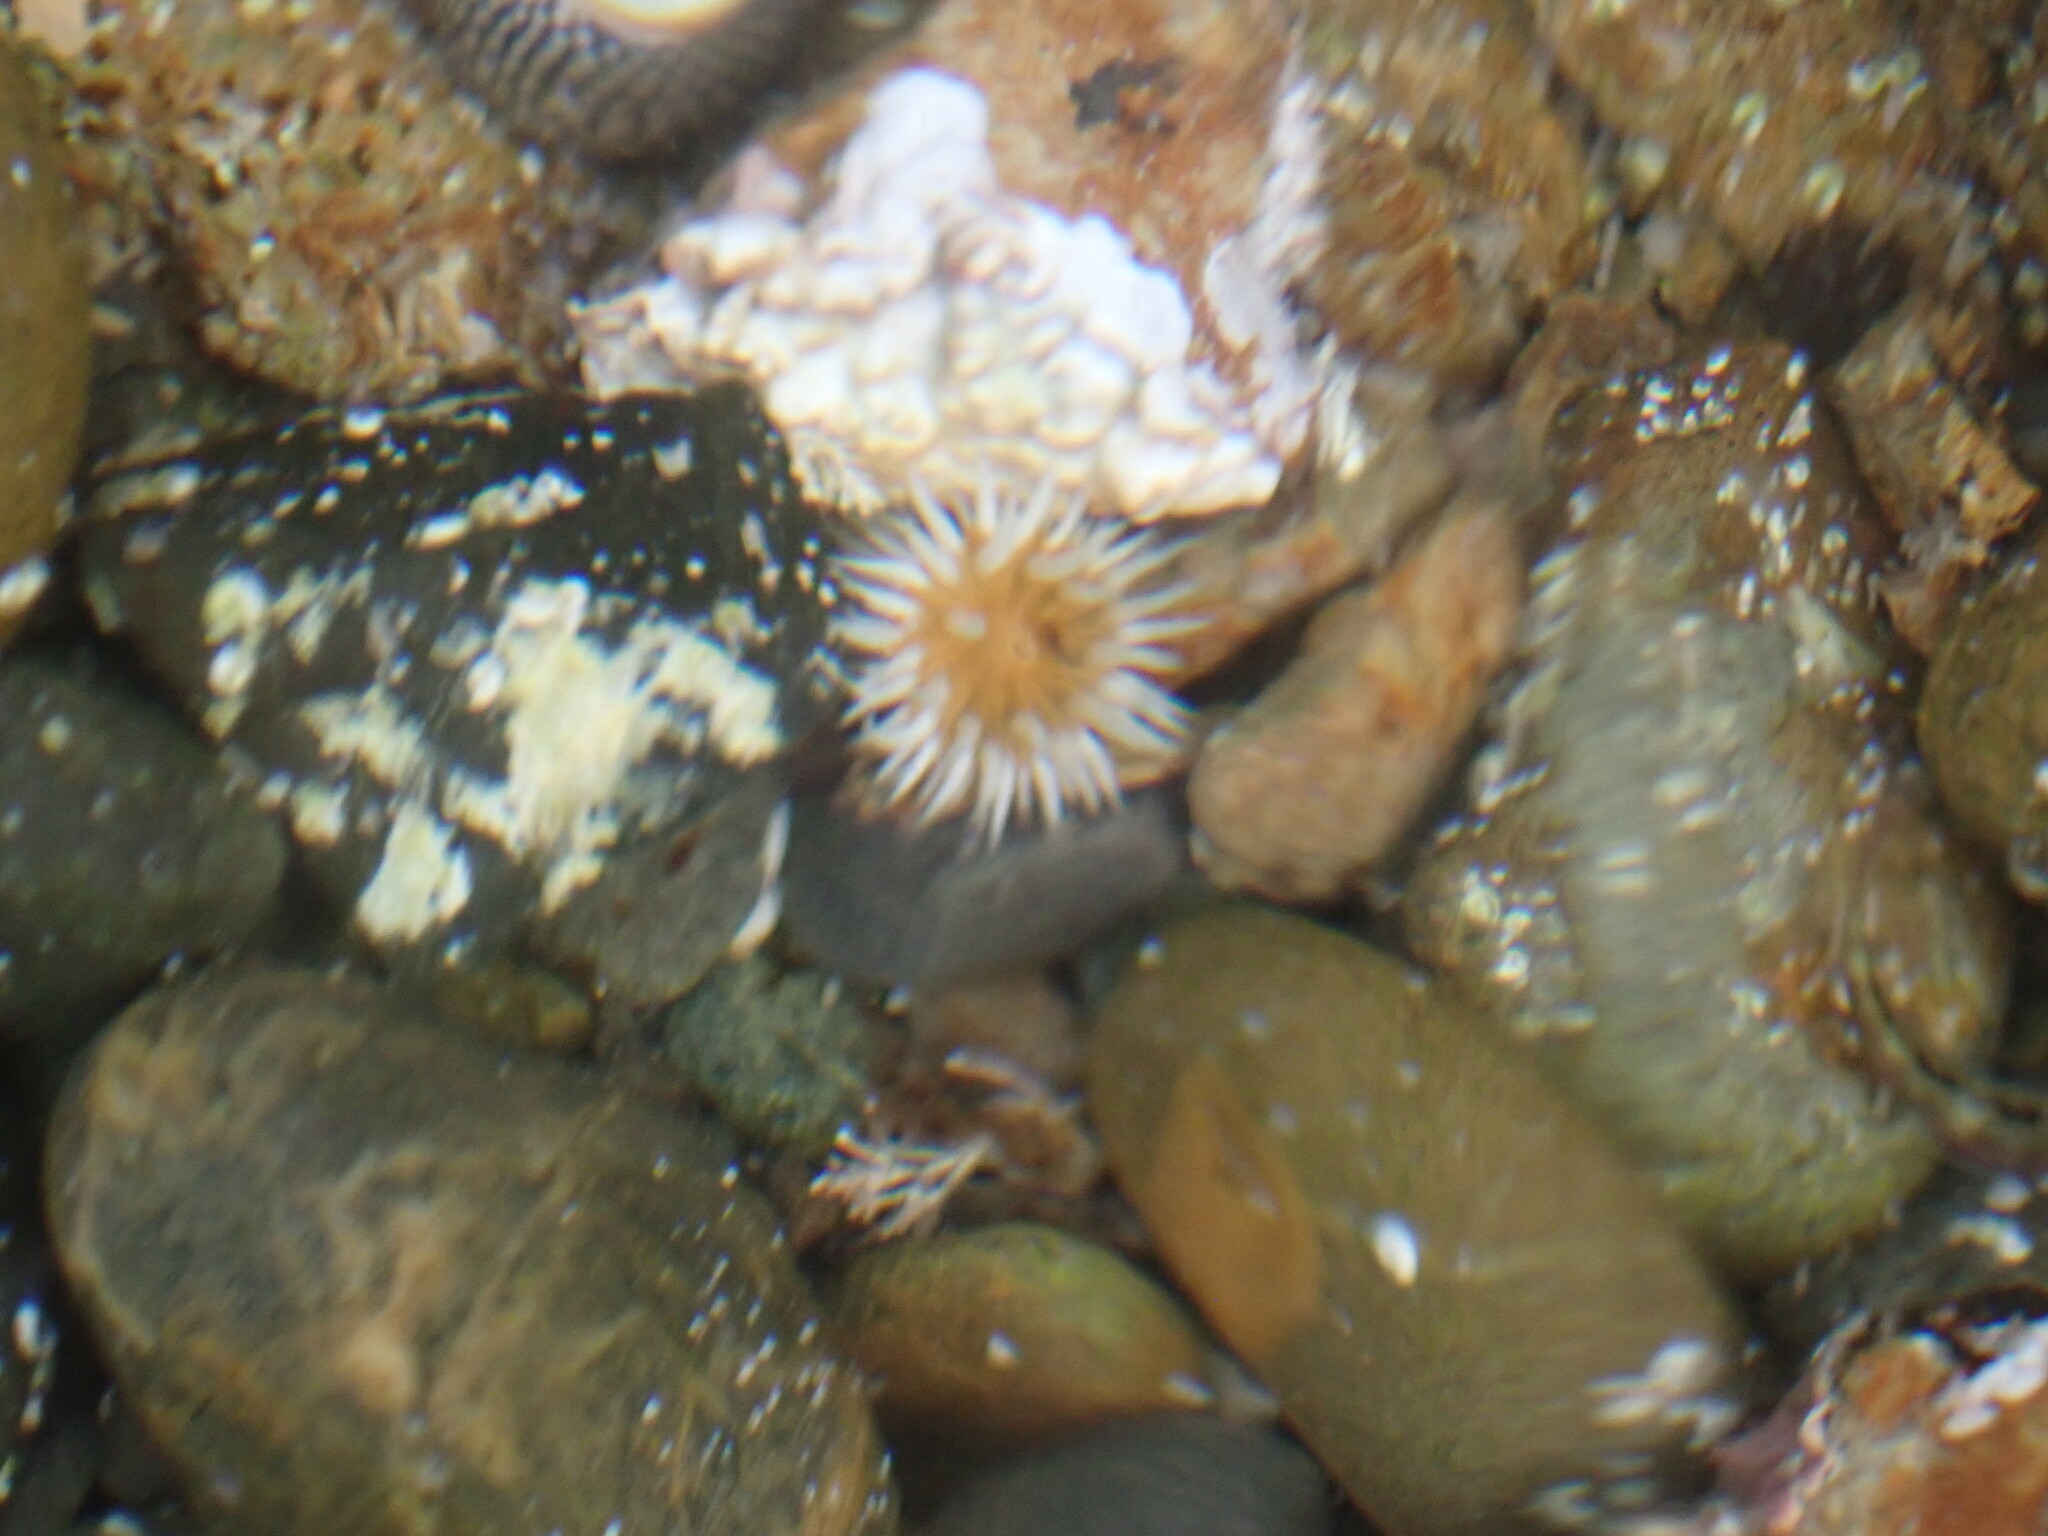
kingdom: Animalia
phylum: Cnidaria
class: Anthozoa
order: Actiniaria
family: Sagartiidae
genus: Anthothoe
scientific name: Anthothoe albocincta
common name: Orange striped anemone
